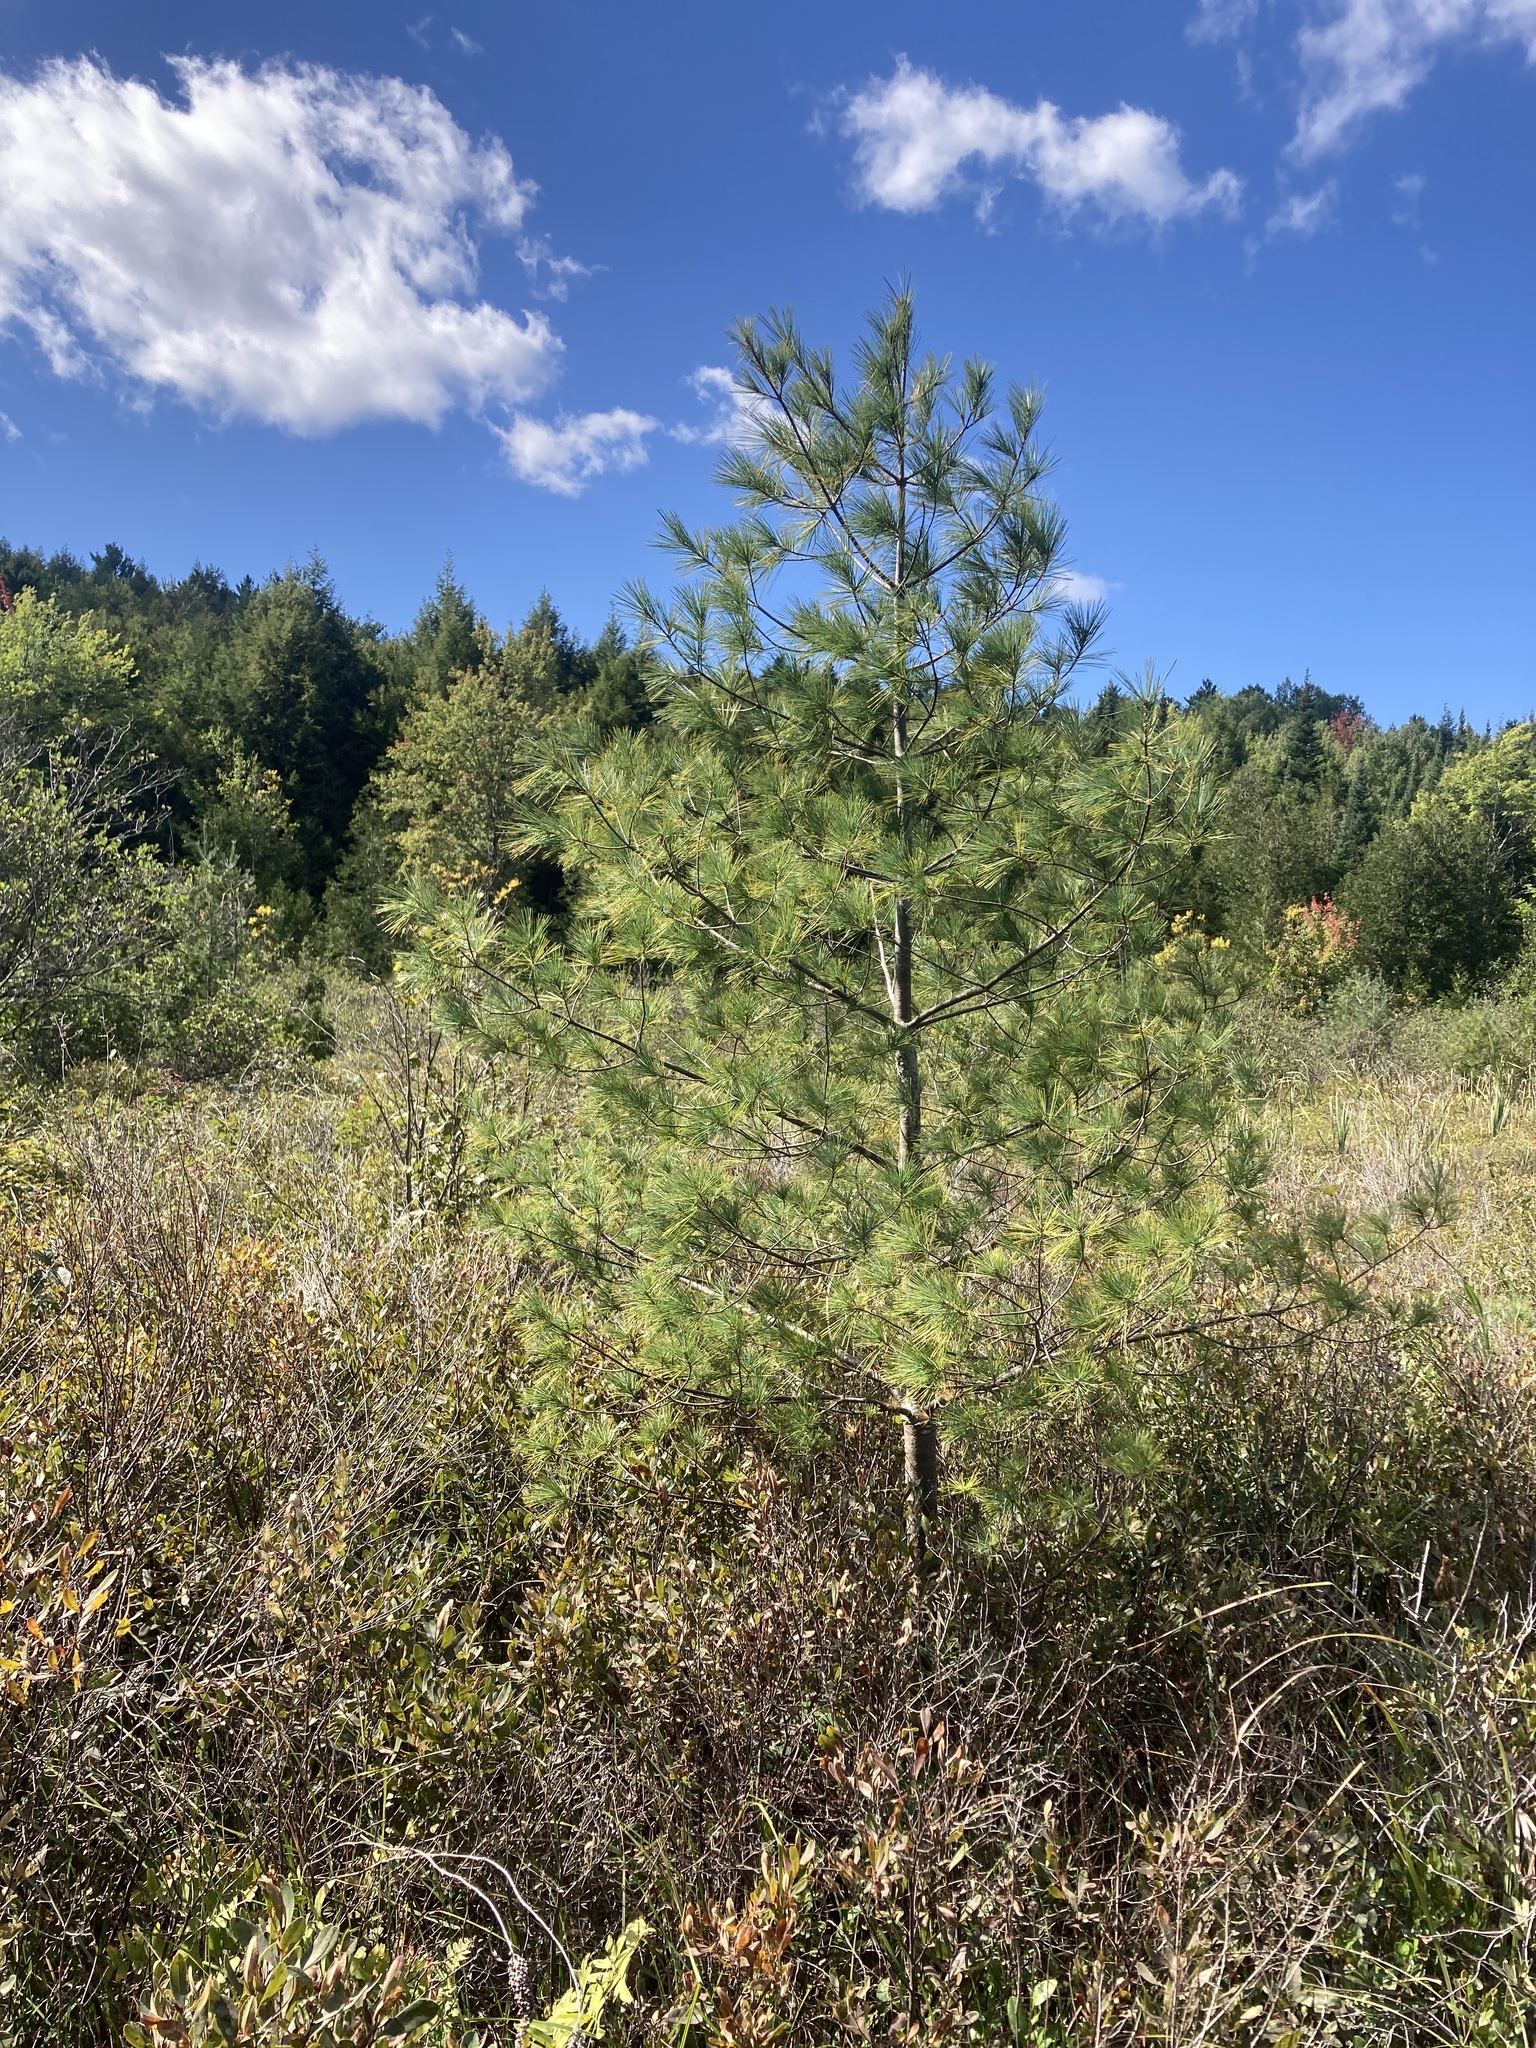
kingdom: Plantae
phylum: Tracheophyta
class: Pinopsida
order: Pinales
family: Pinaceae
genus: Pinus
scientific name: Pinus strobus
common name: Weymouth pine
